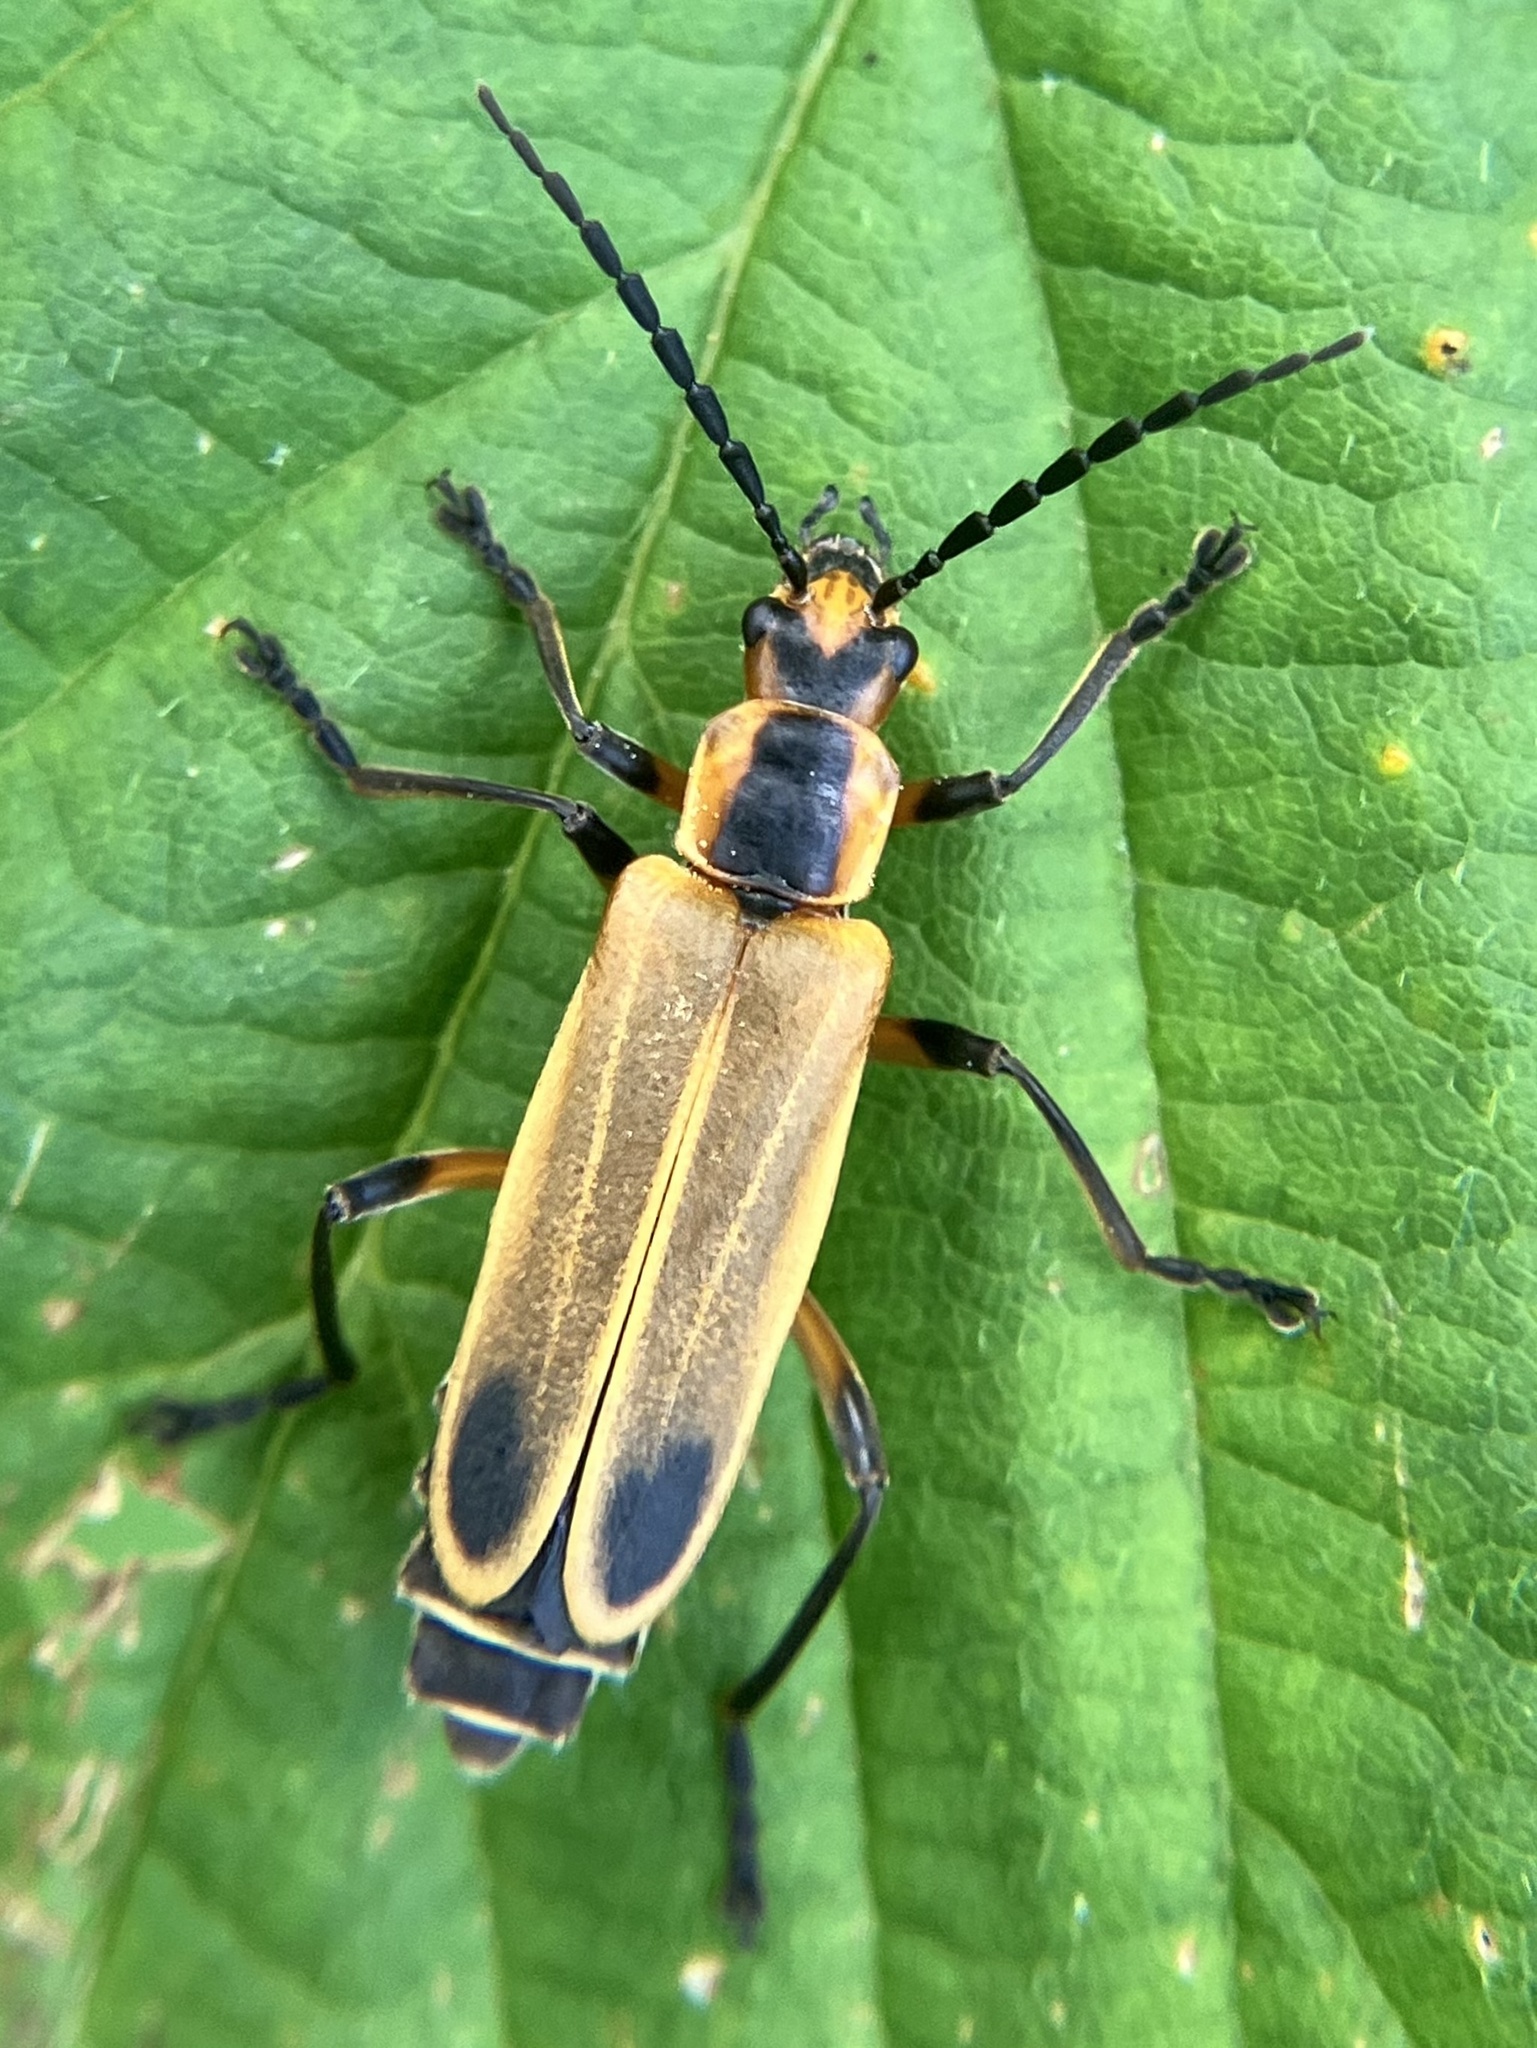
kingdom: Animalia
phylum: Arthropoda
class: Insecta
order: Coleoptera
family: Cantharidae
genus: Chauliognathus
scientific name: Chauliognathus marginatus
